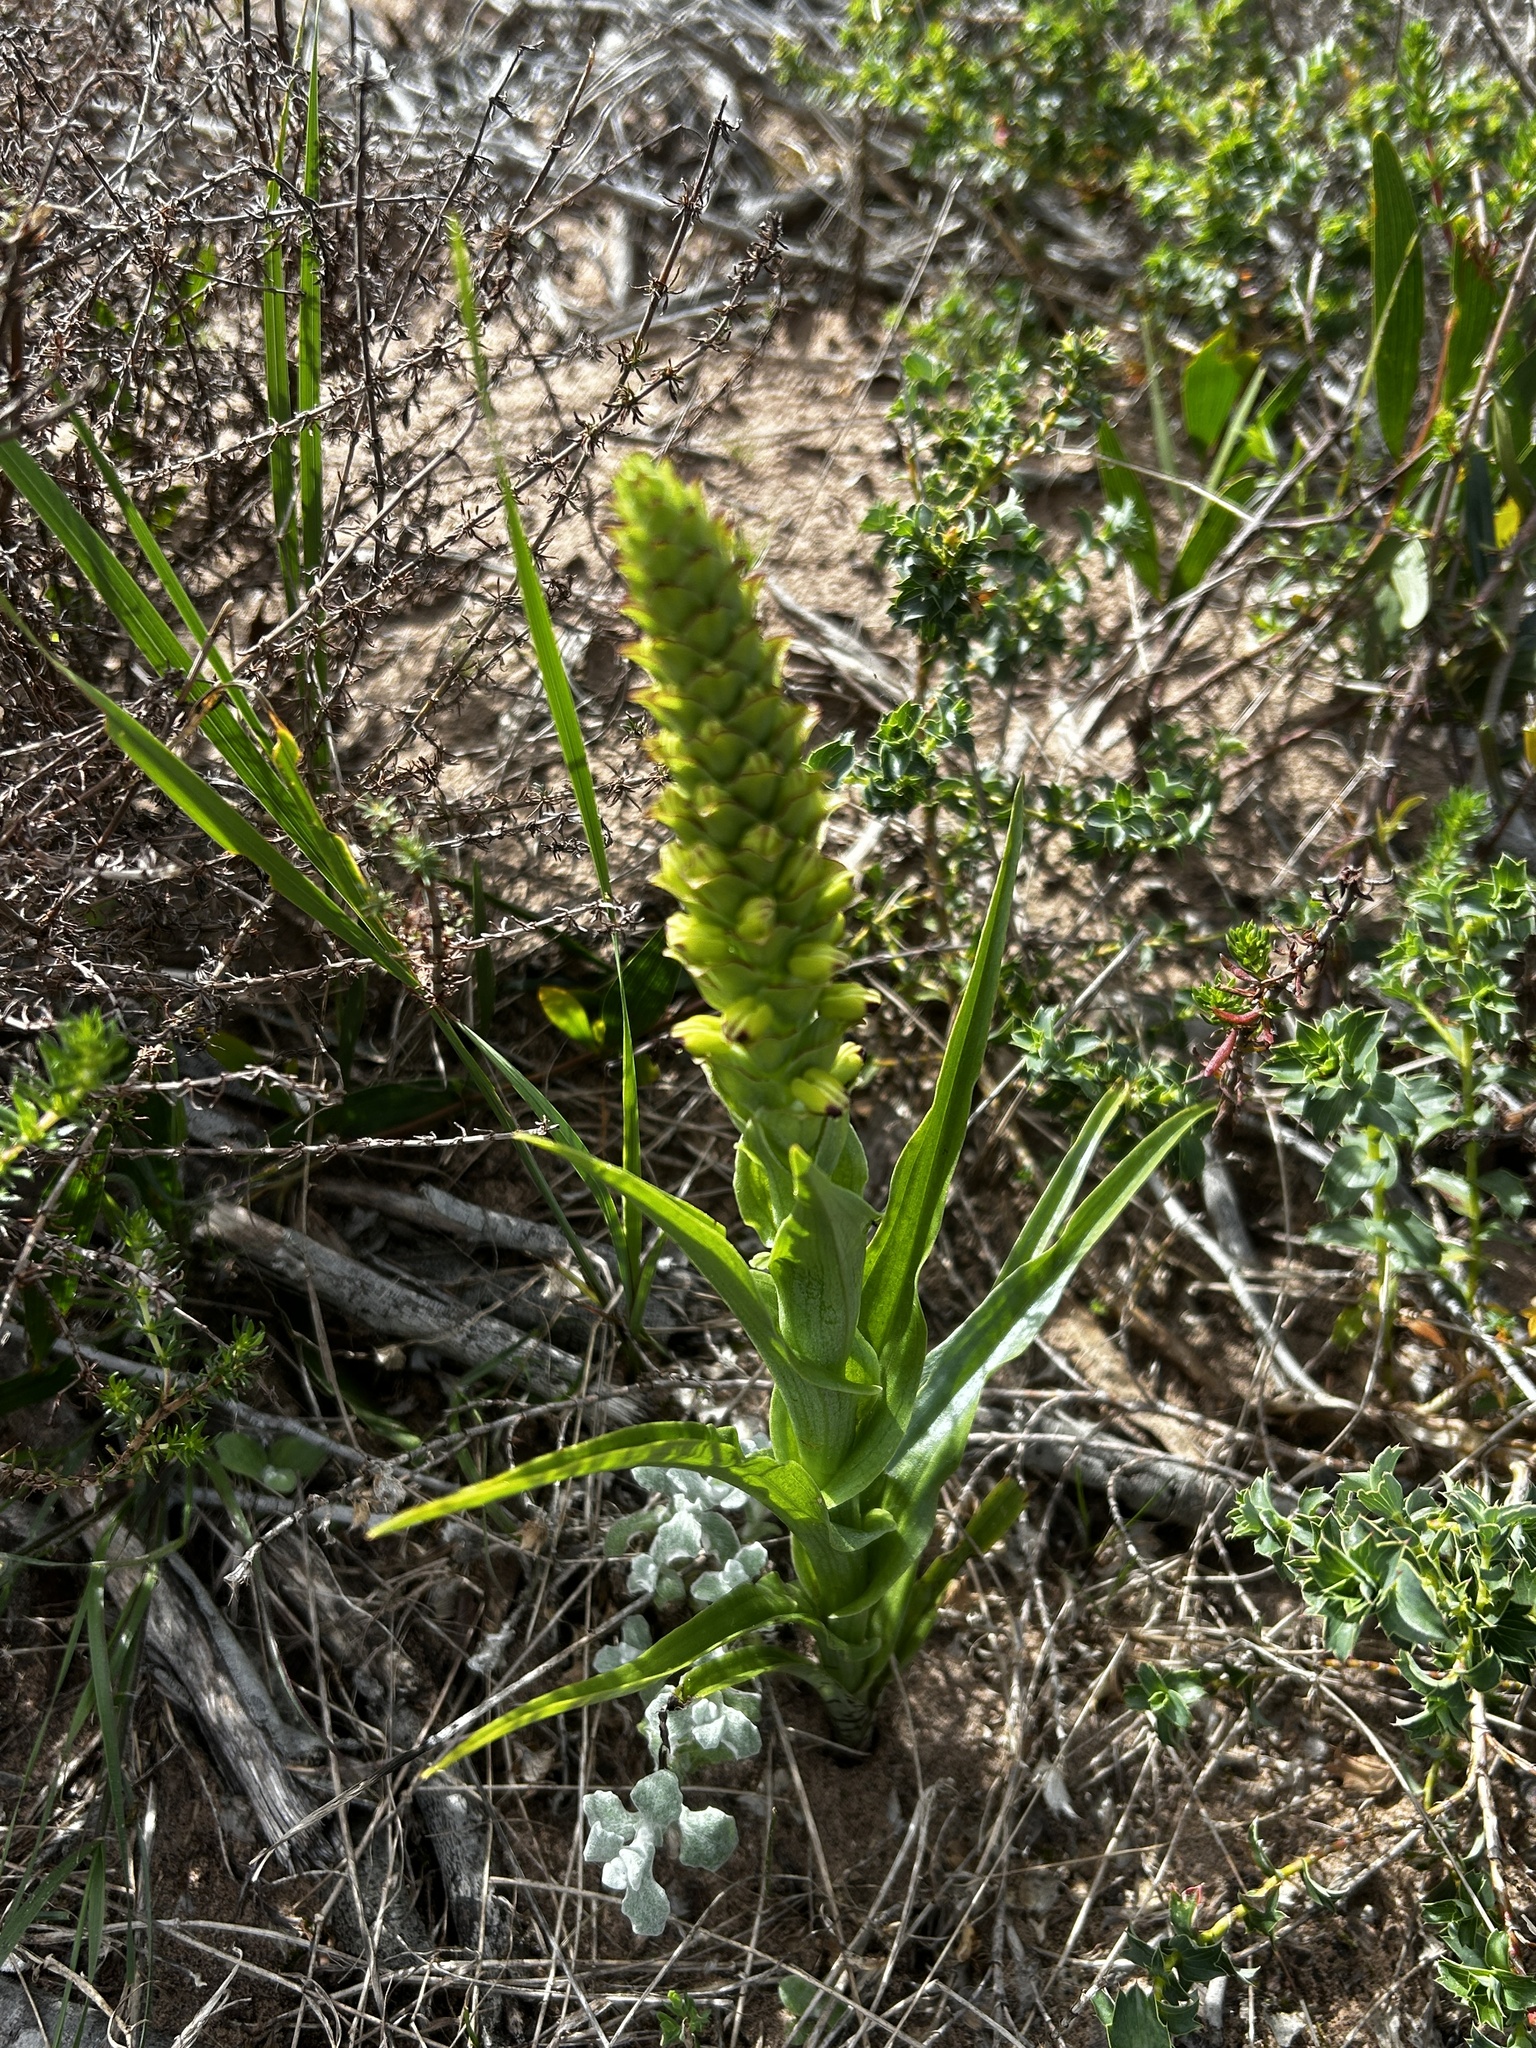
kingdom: Plantae
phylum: Tracheophyta
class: Liliopsida
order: Asparagales
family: Orchidaceae
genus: Corycium
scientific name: Corycium orobanchoides
